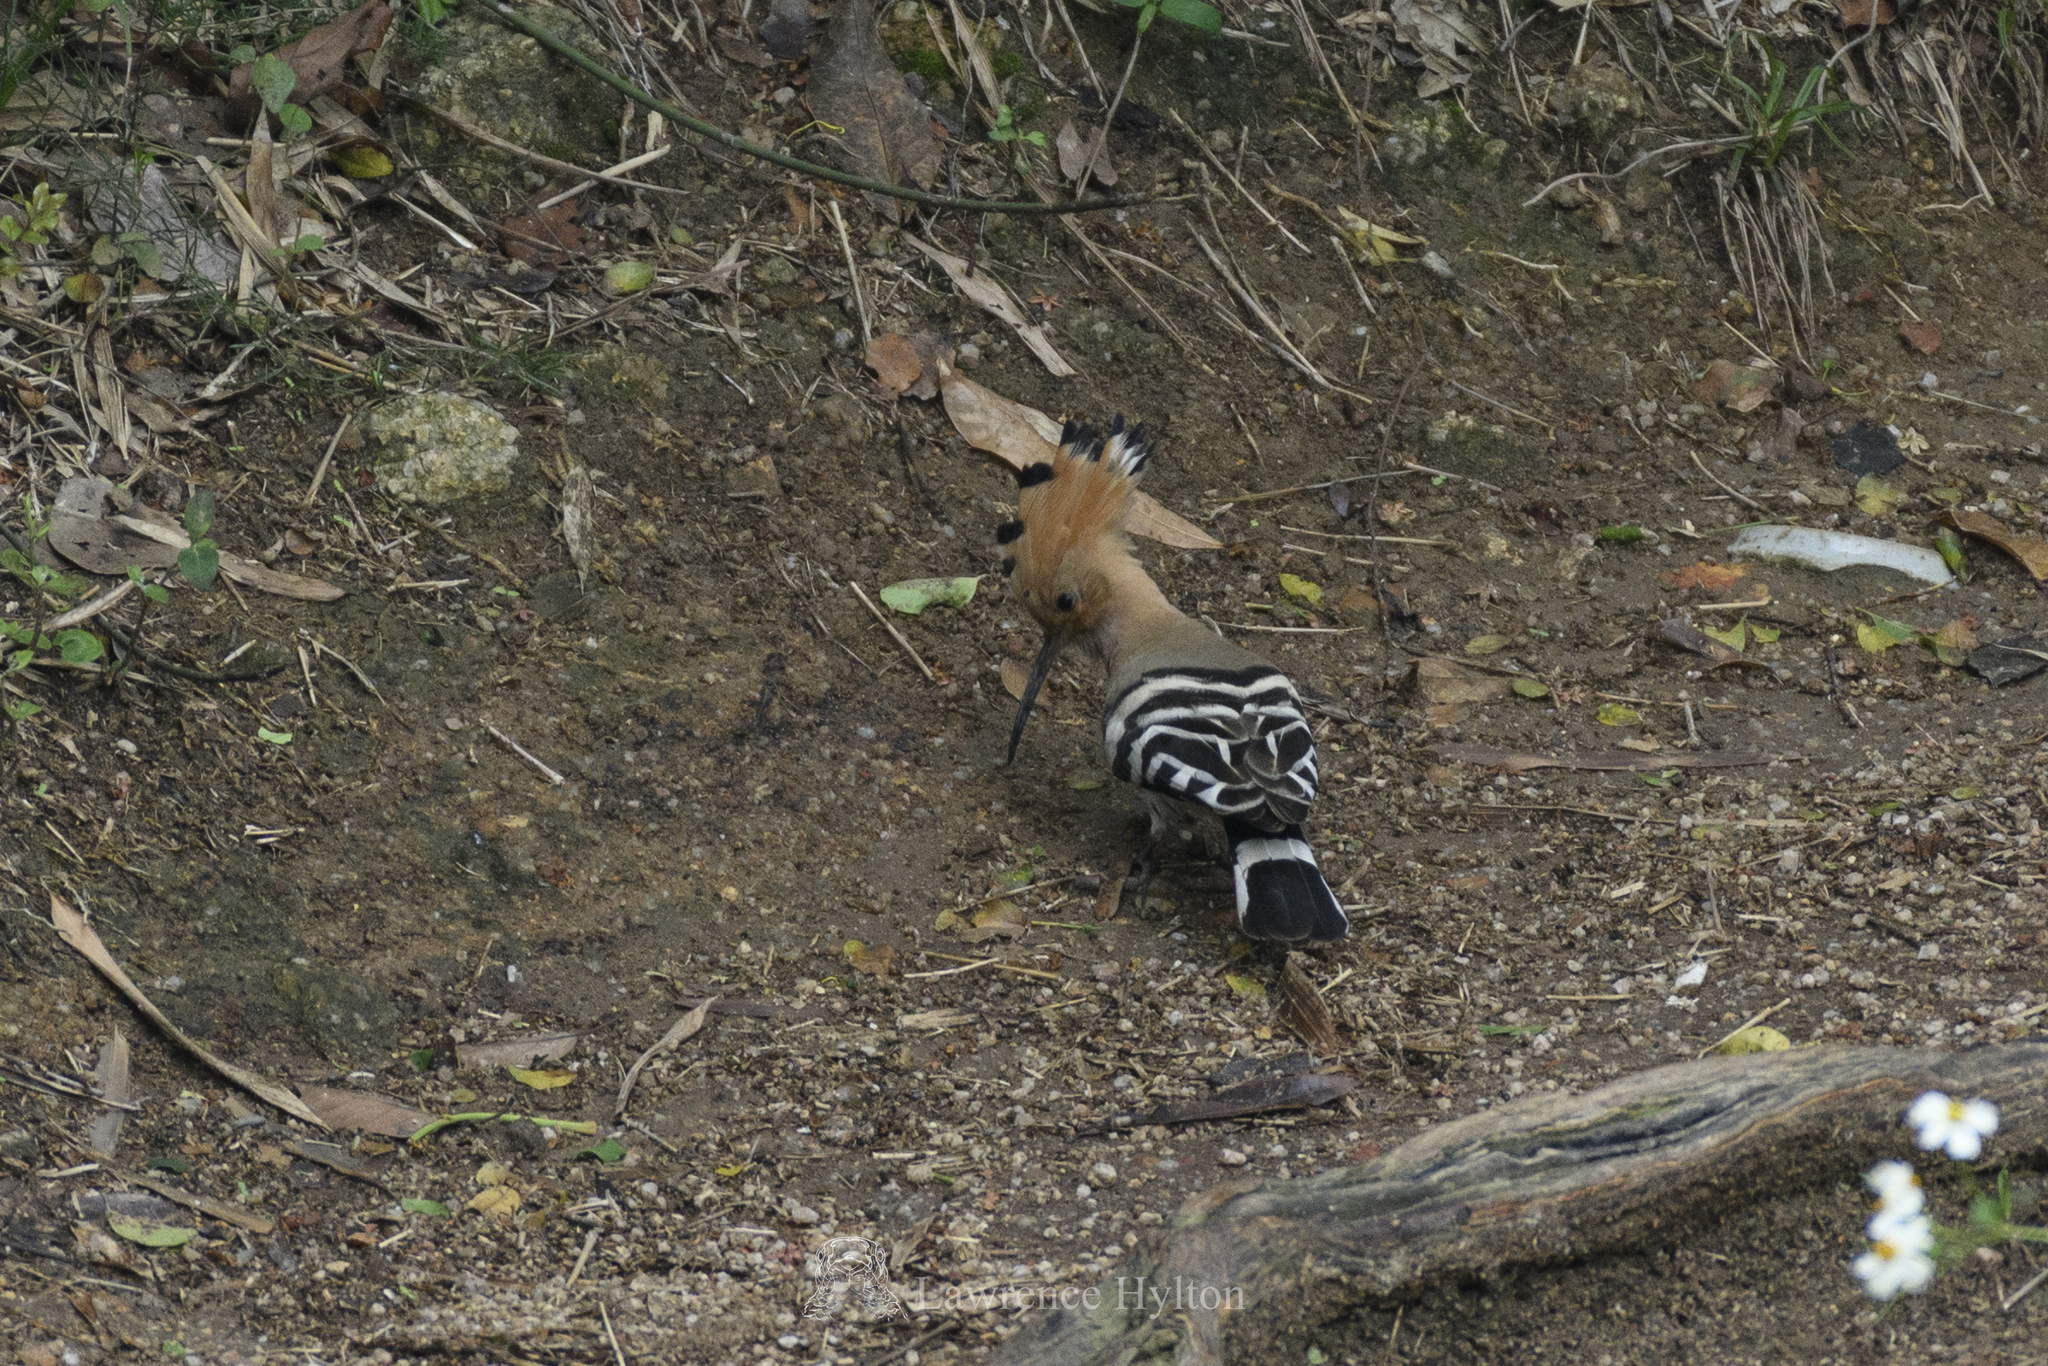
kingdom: Animalia
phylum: Chordata
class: Aves
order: Bucerotiformes
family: Upupidae
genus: Upupa
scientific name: Upupa epops
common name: Eurasian hoopoe
